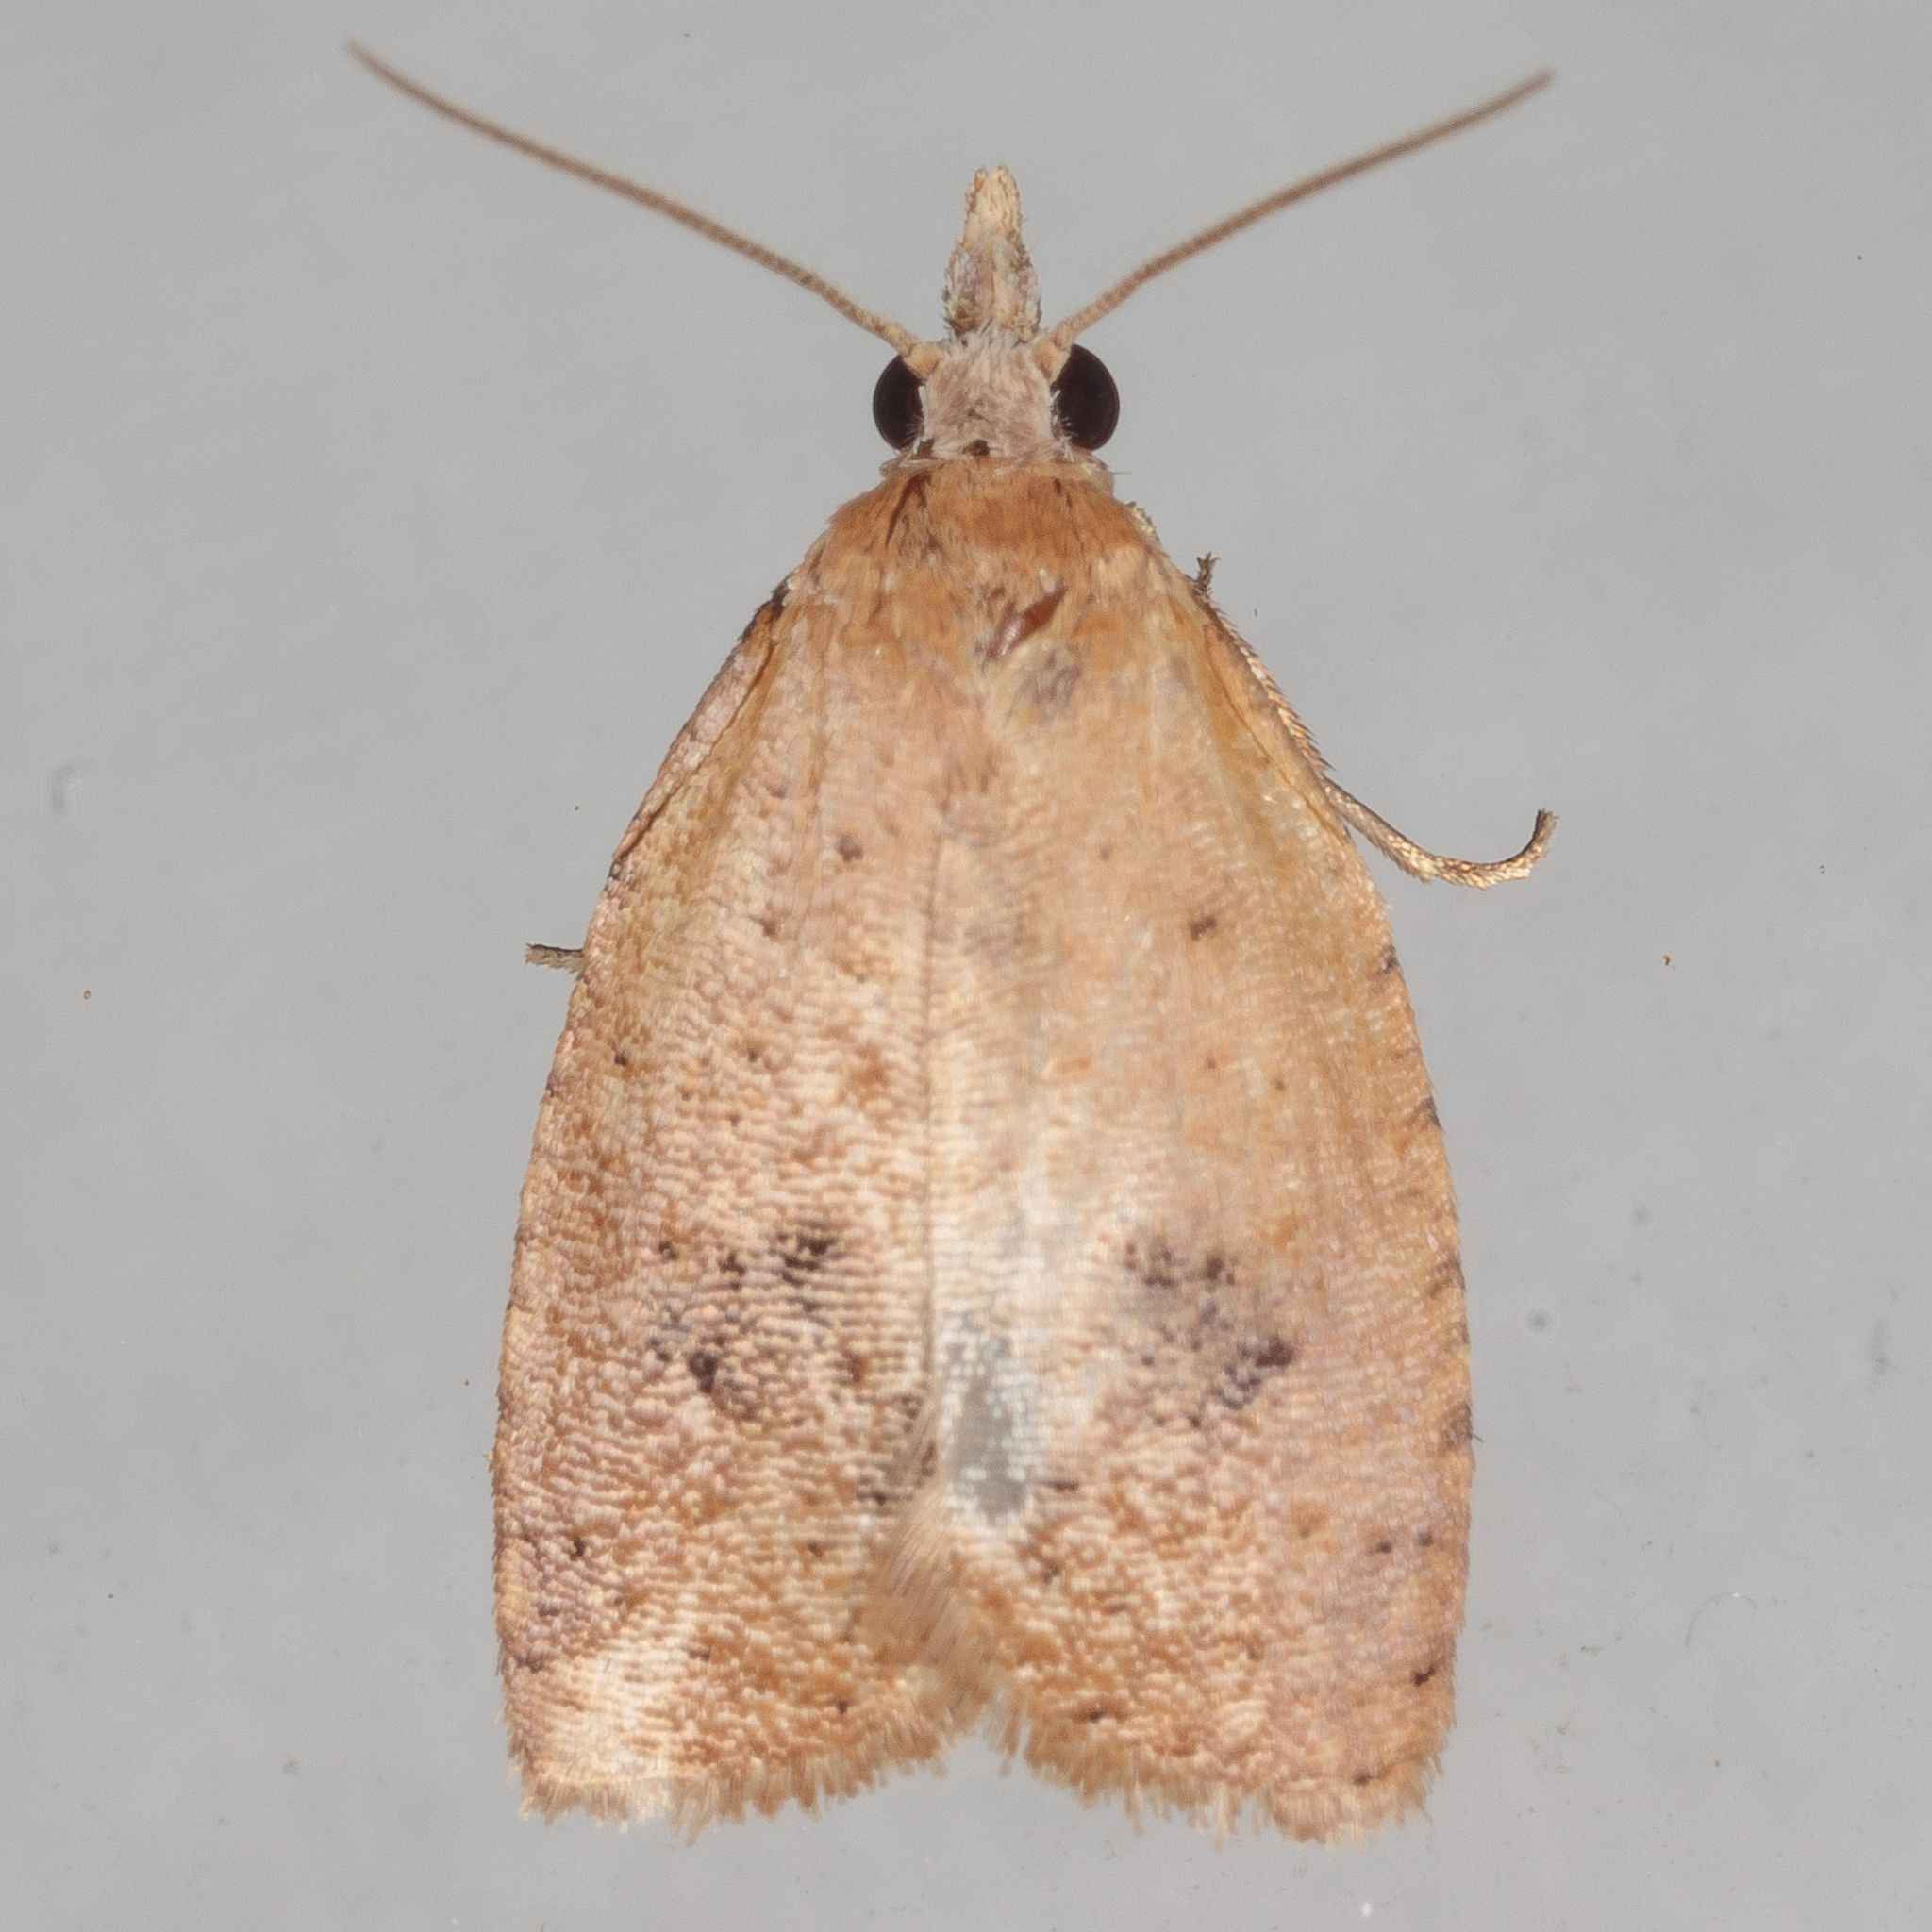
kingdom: Animalia
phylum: Arthropoda
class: Insecta
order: Lepidoptera
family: Tortricidae
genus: Sparganothoides
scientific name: Sparganothoides lentiginosana
